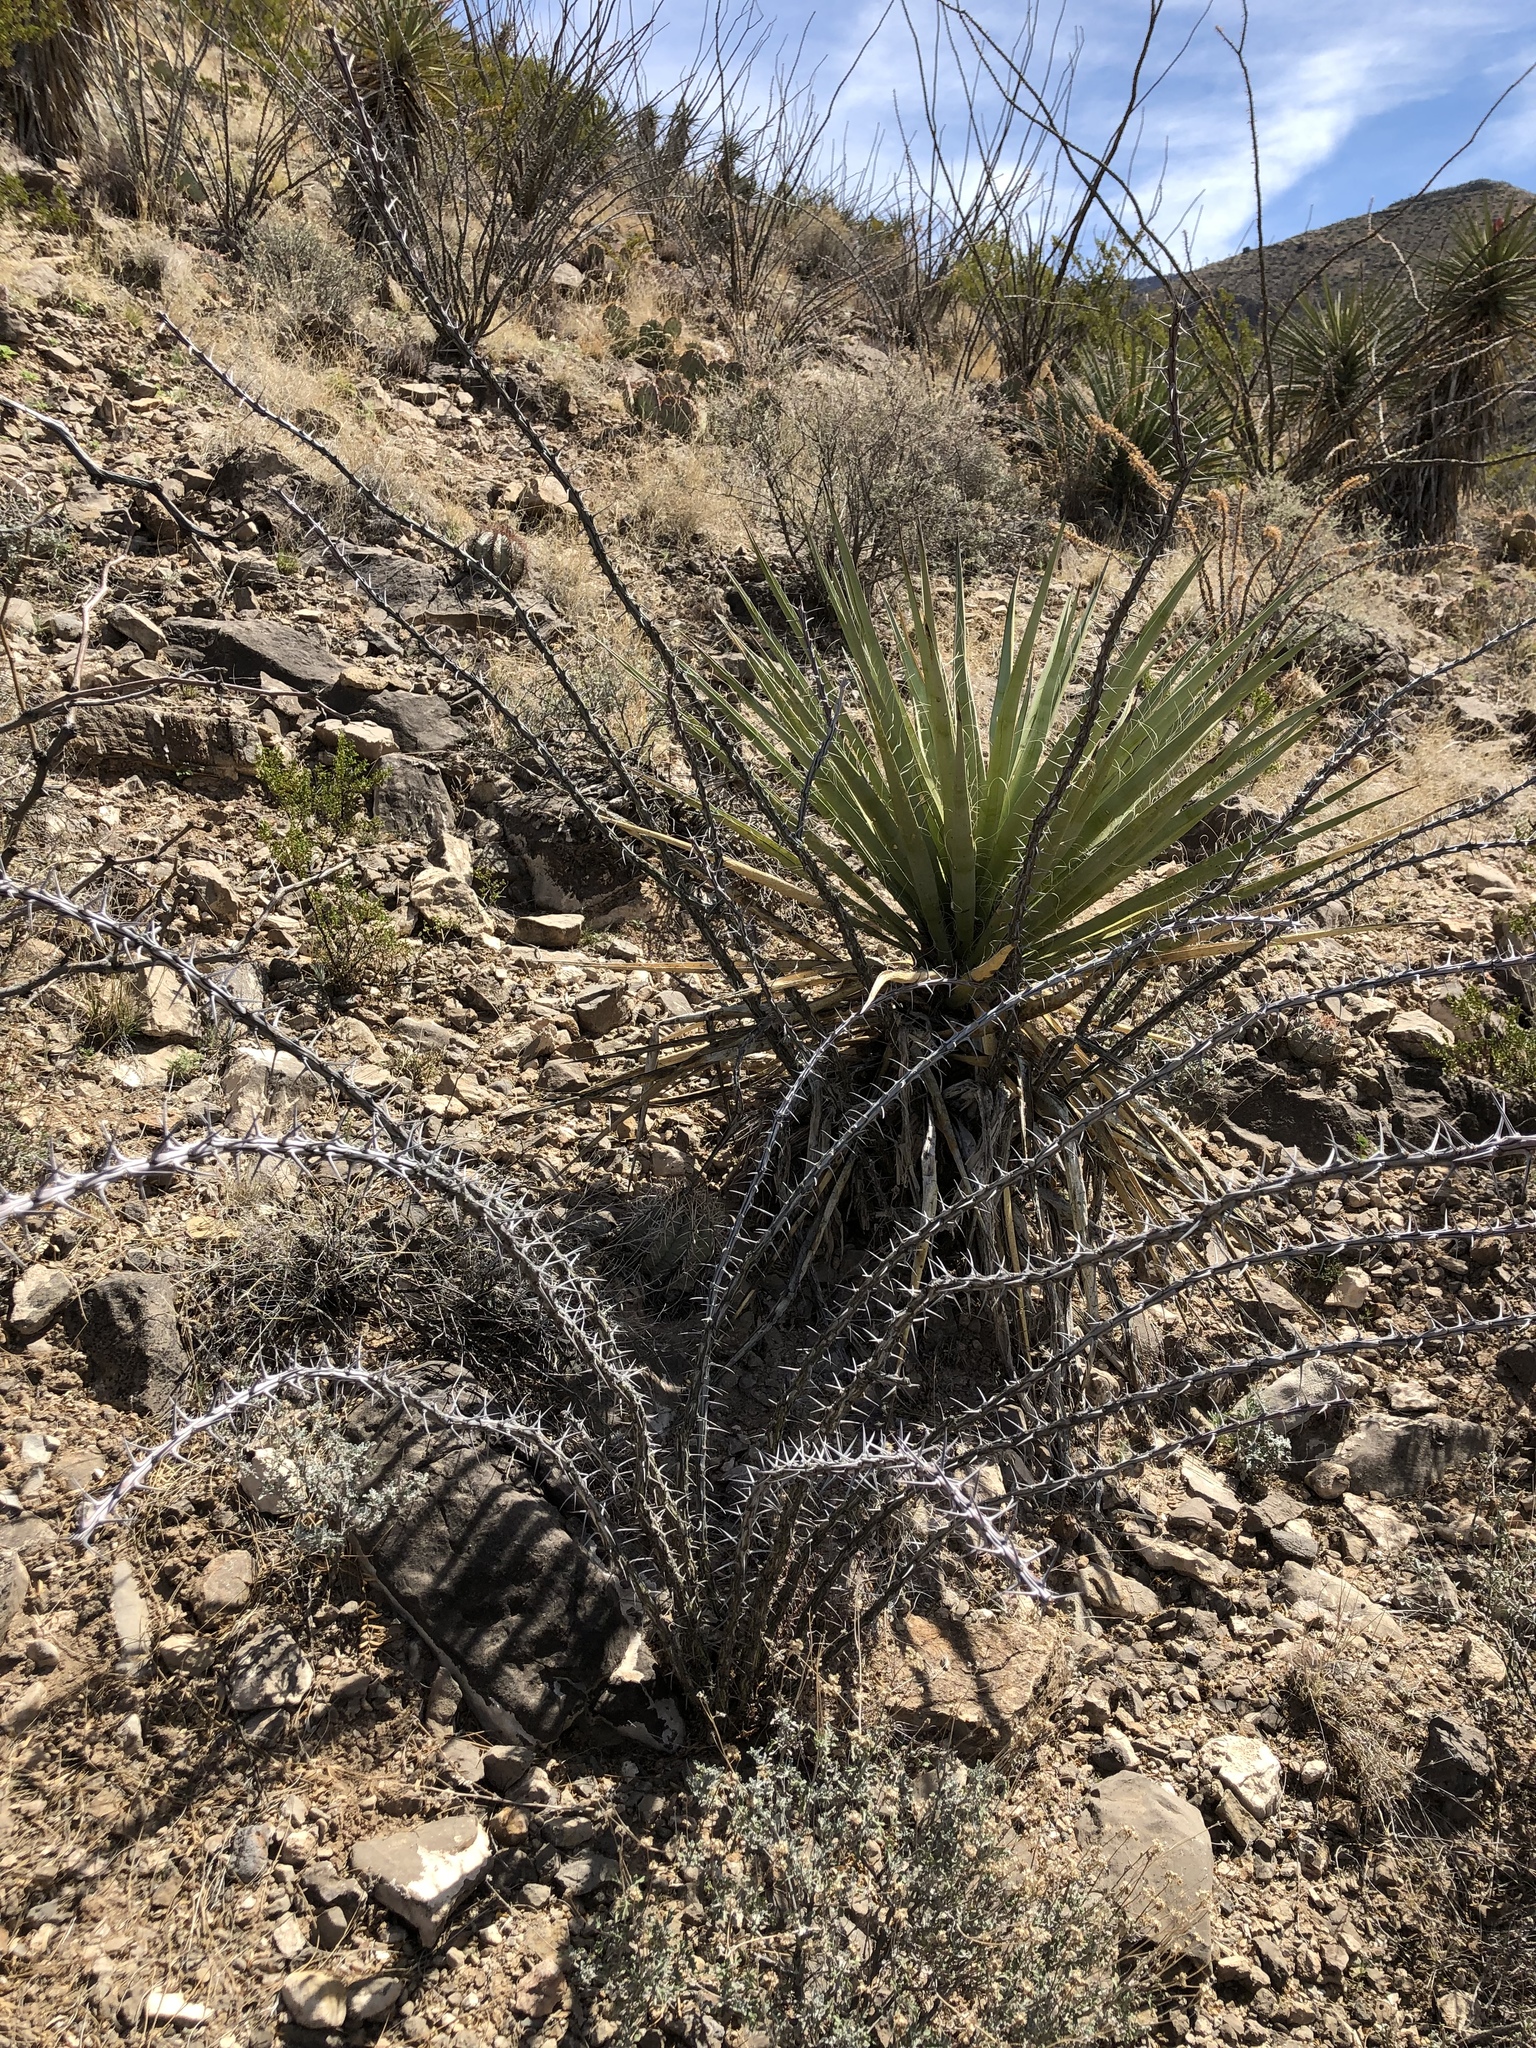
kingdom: Plantae
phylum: Tracheophyta
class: Magnoliopsida
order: Ericales
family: Fouquieriaceae
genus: Fouquieria
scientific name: Fouquieria splendens
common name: Vine-cactus
